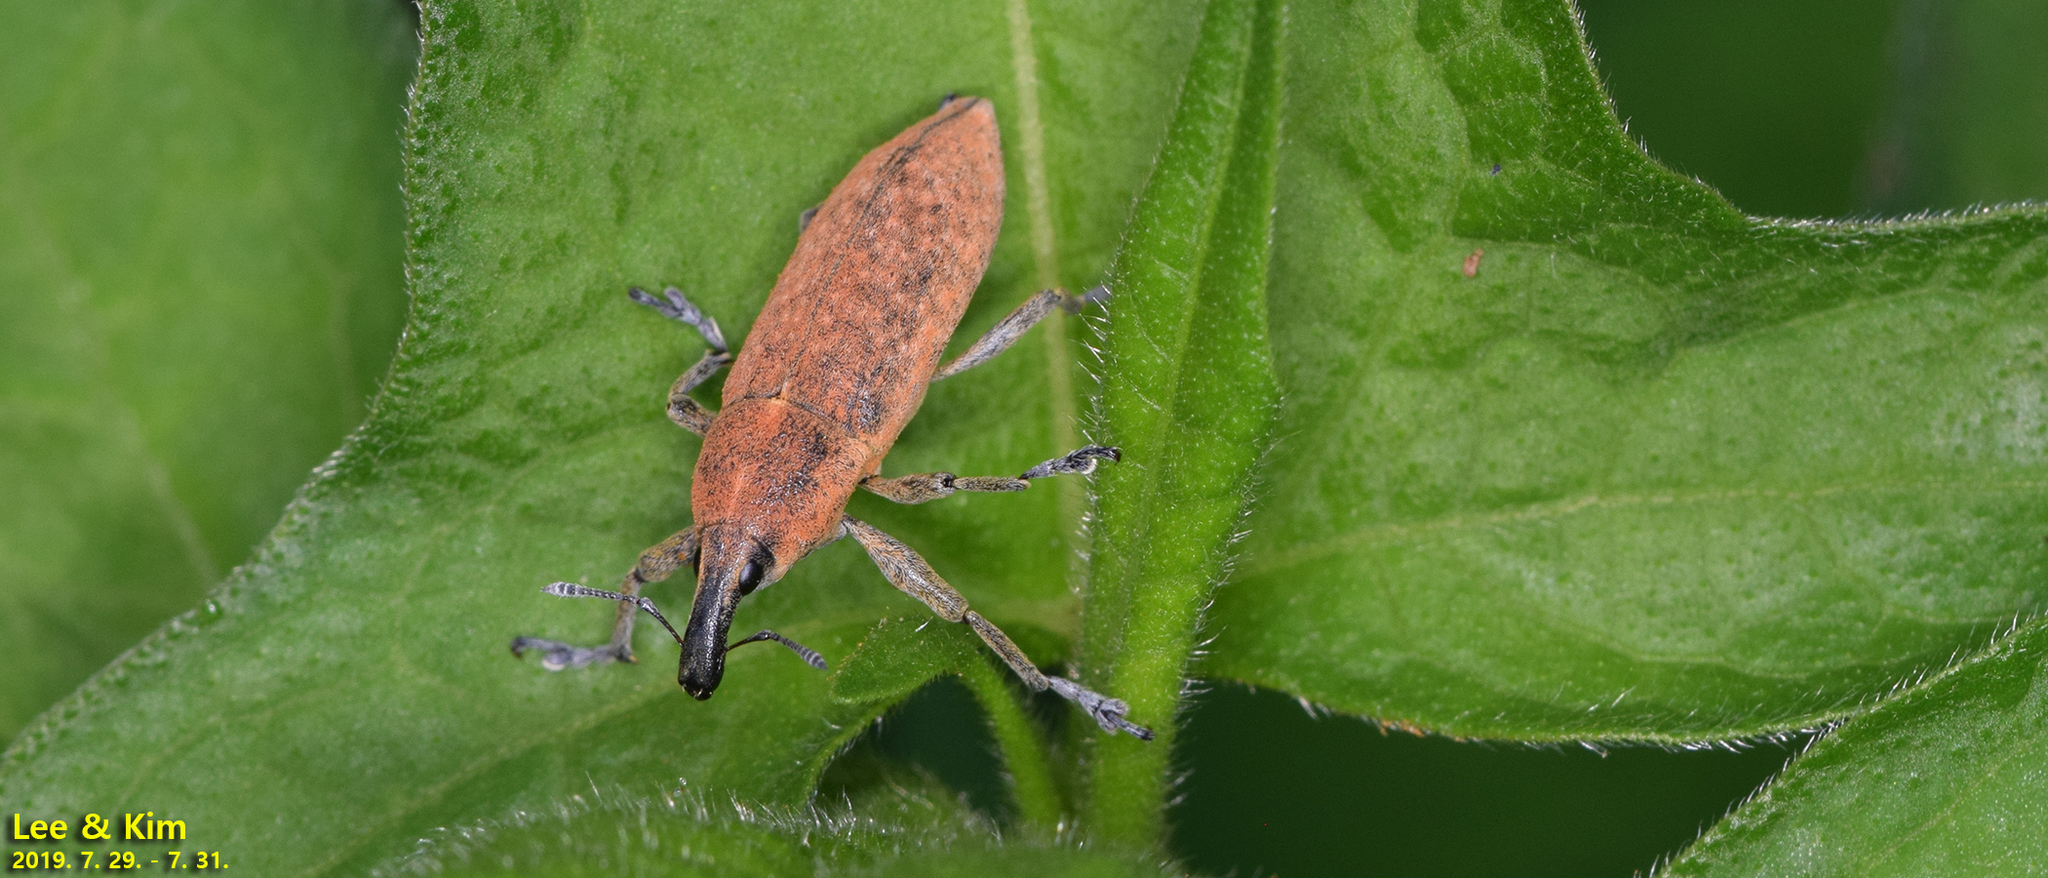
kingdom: Animalia
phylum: Arthropoda
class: Insecta
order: Coleoptera
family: Curculionidae
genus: Lixus
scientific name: Lixus impressiventris
